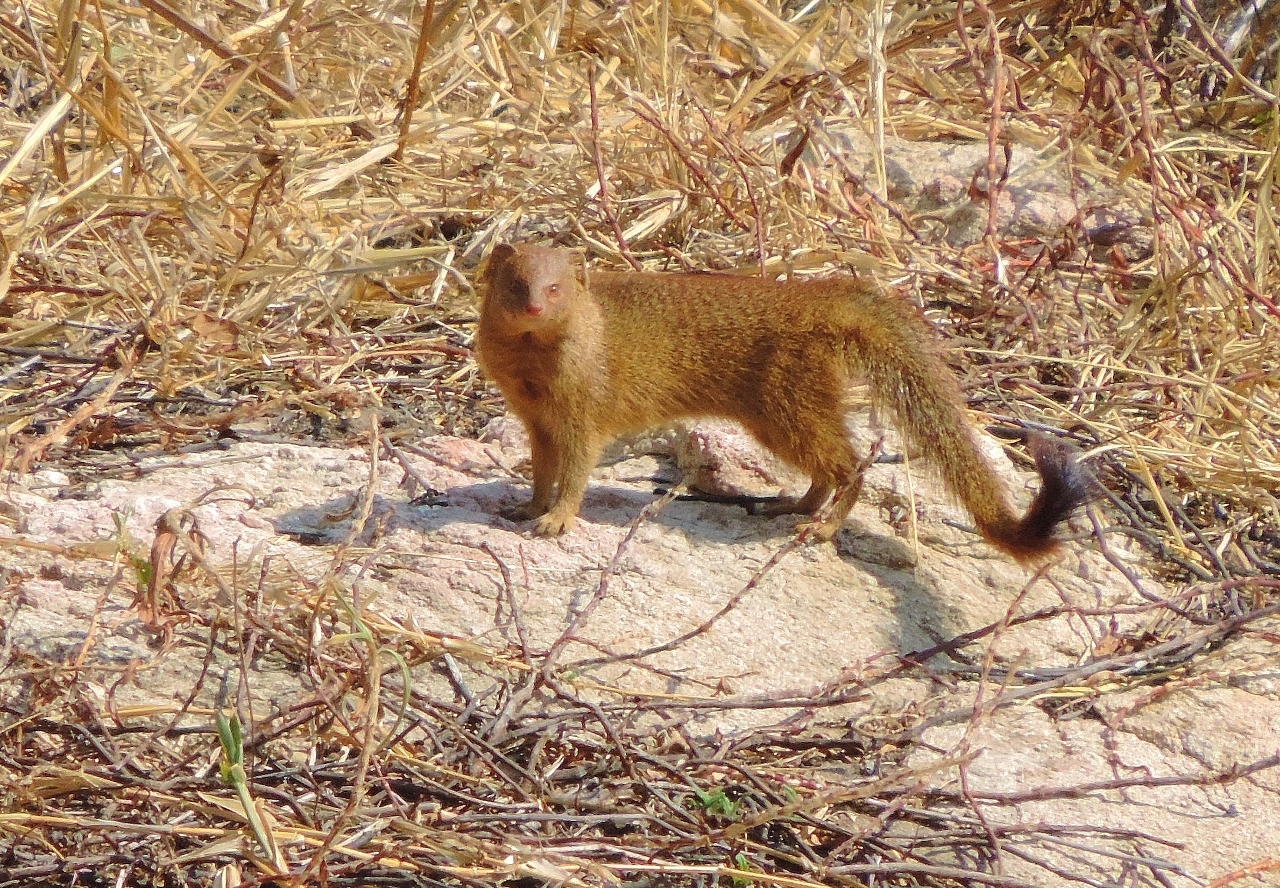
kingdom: Animalia
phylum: Chordata
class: Mammalia
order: Carnivora
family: Herpestidae
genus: Galerella
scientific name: Galerella sanguinea
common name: Slender mongoose
